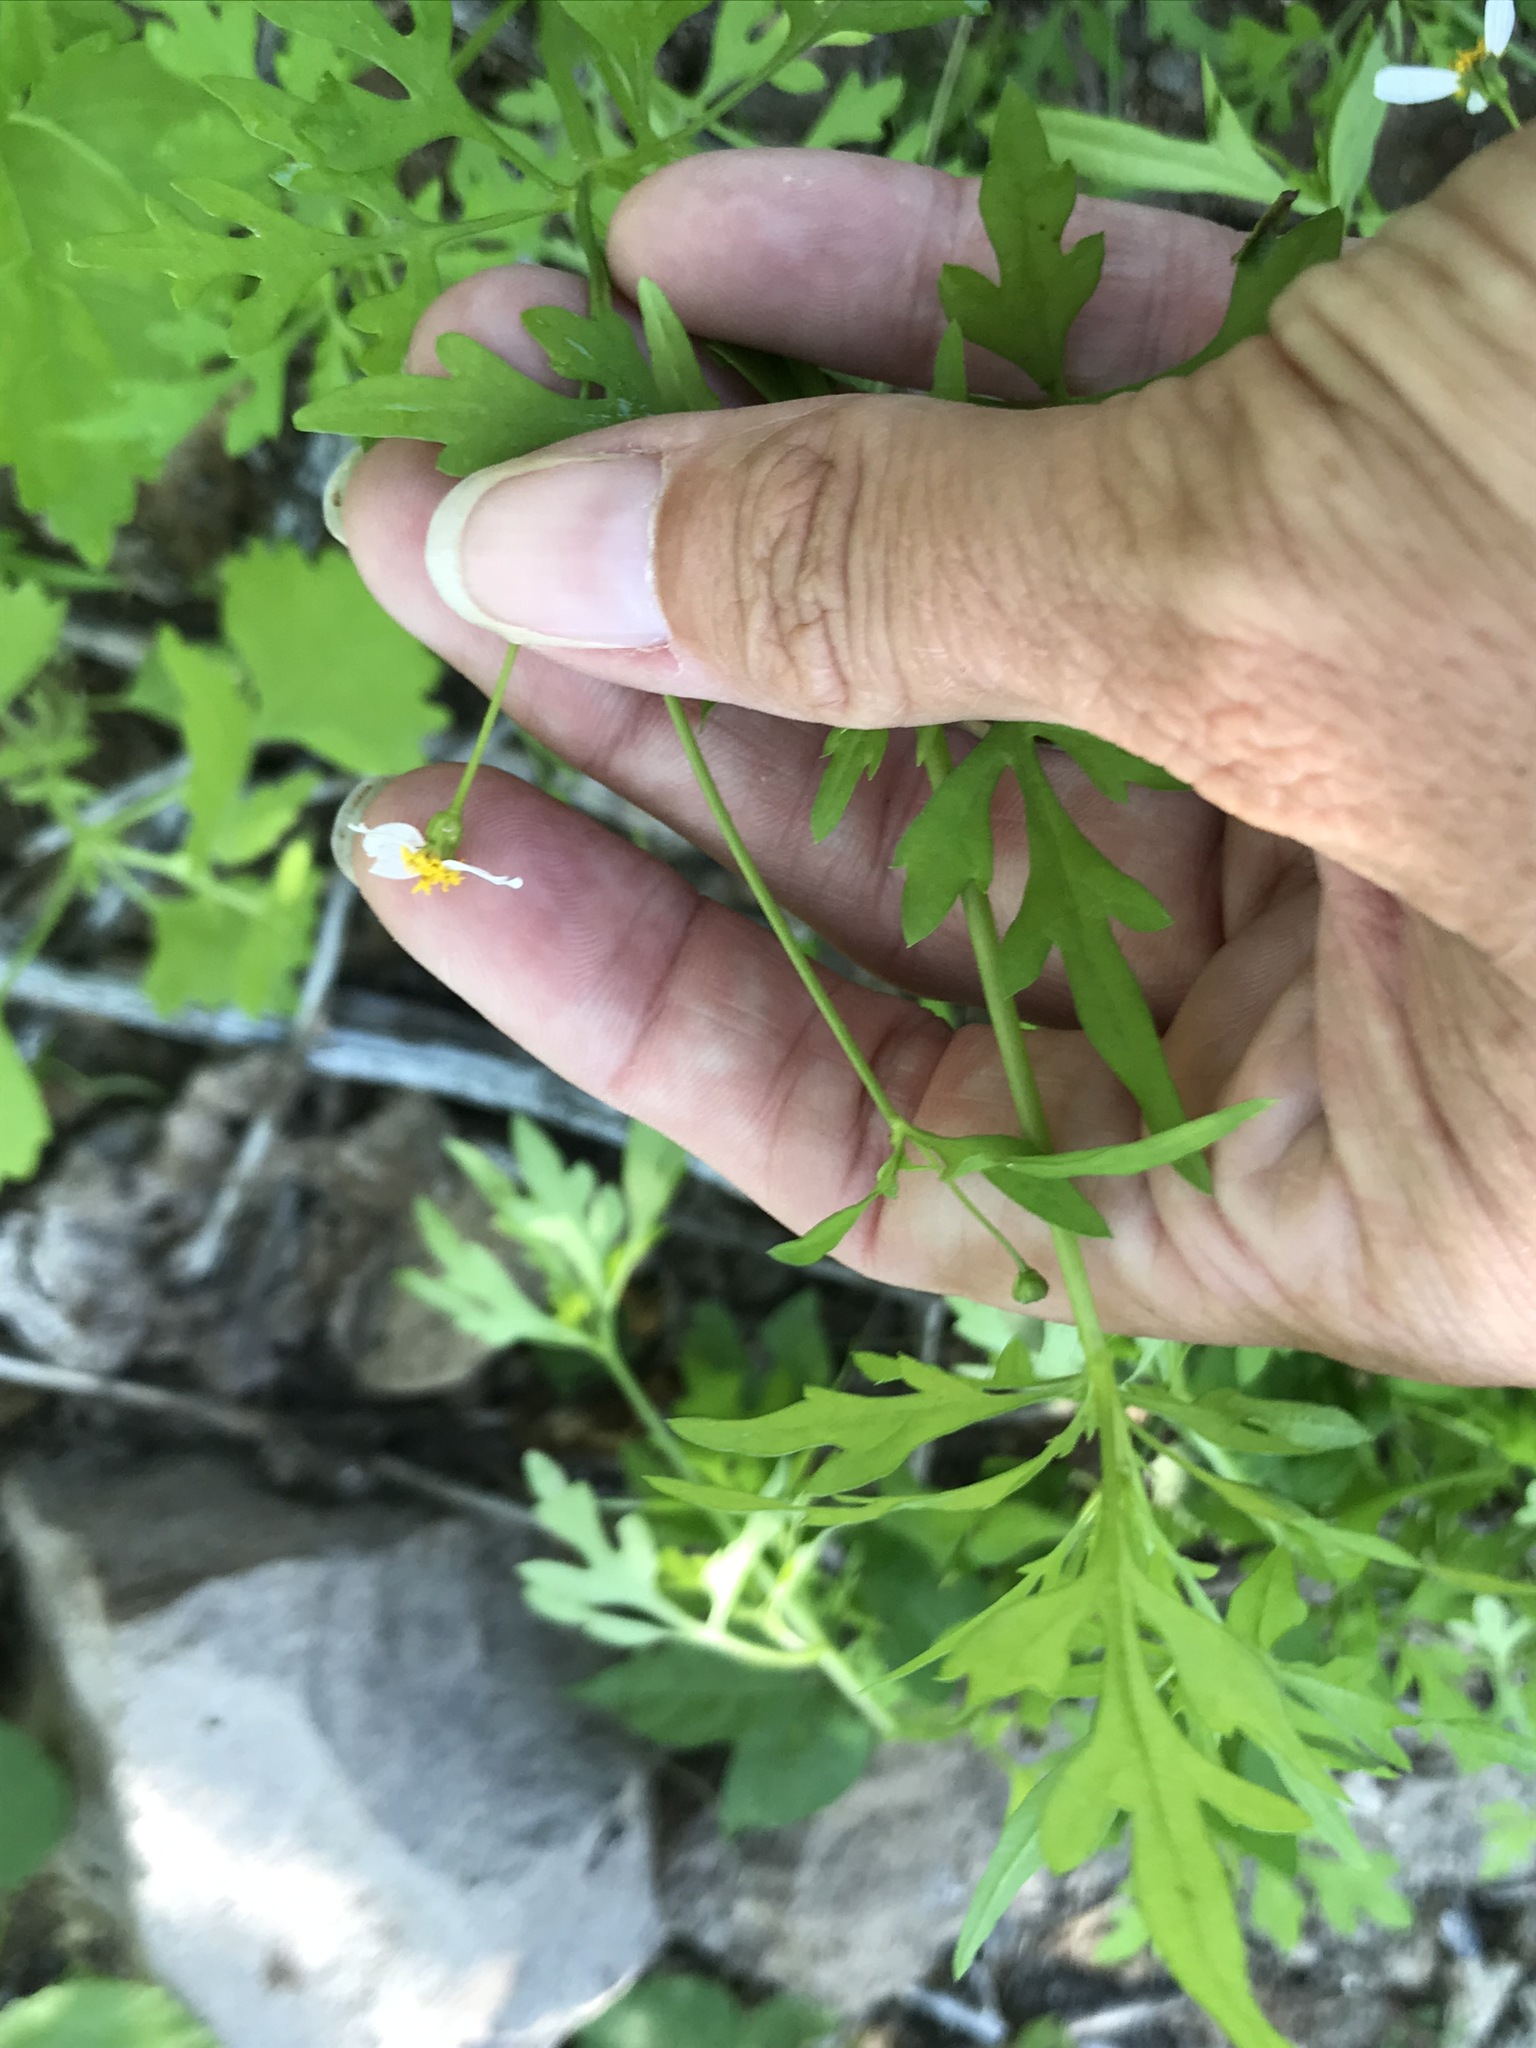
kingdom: Plantae
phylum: Tracheophyta
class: Magnoliopsida
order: Asterales
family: Asteraceae
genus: Coreocarpus
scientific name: Coreocarpus parthenioides
